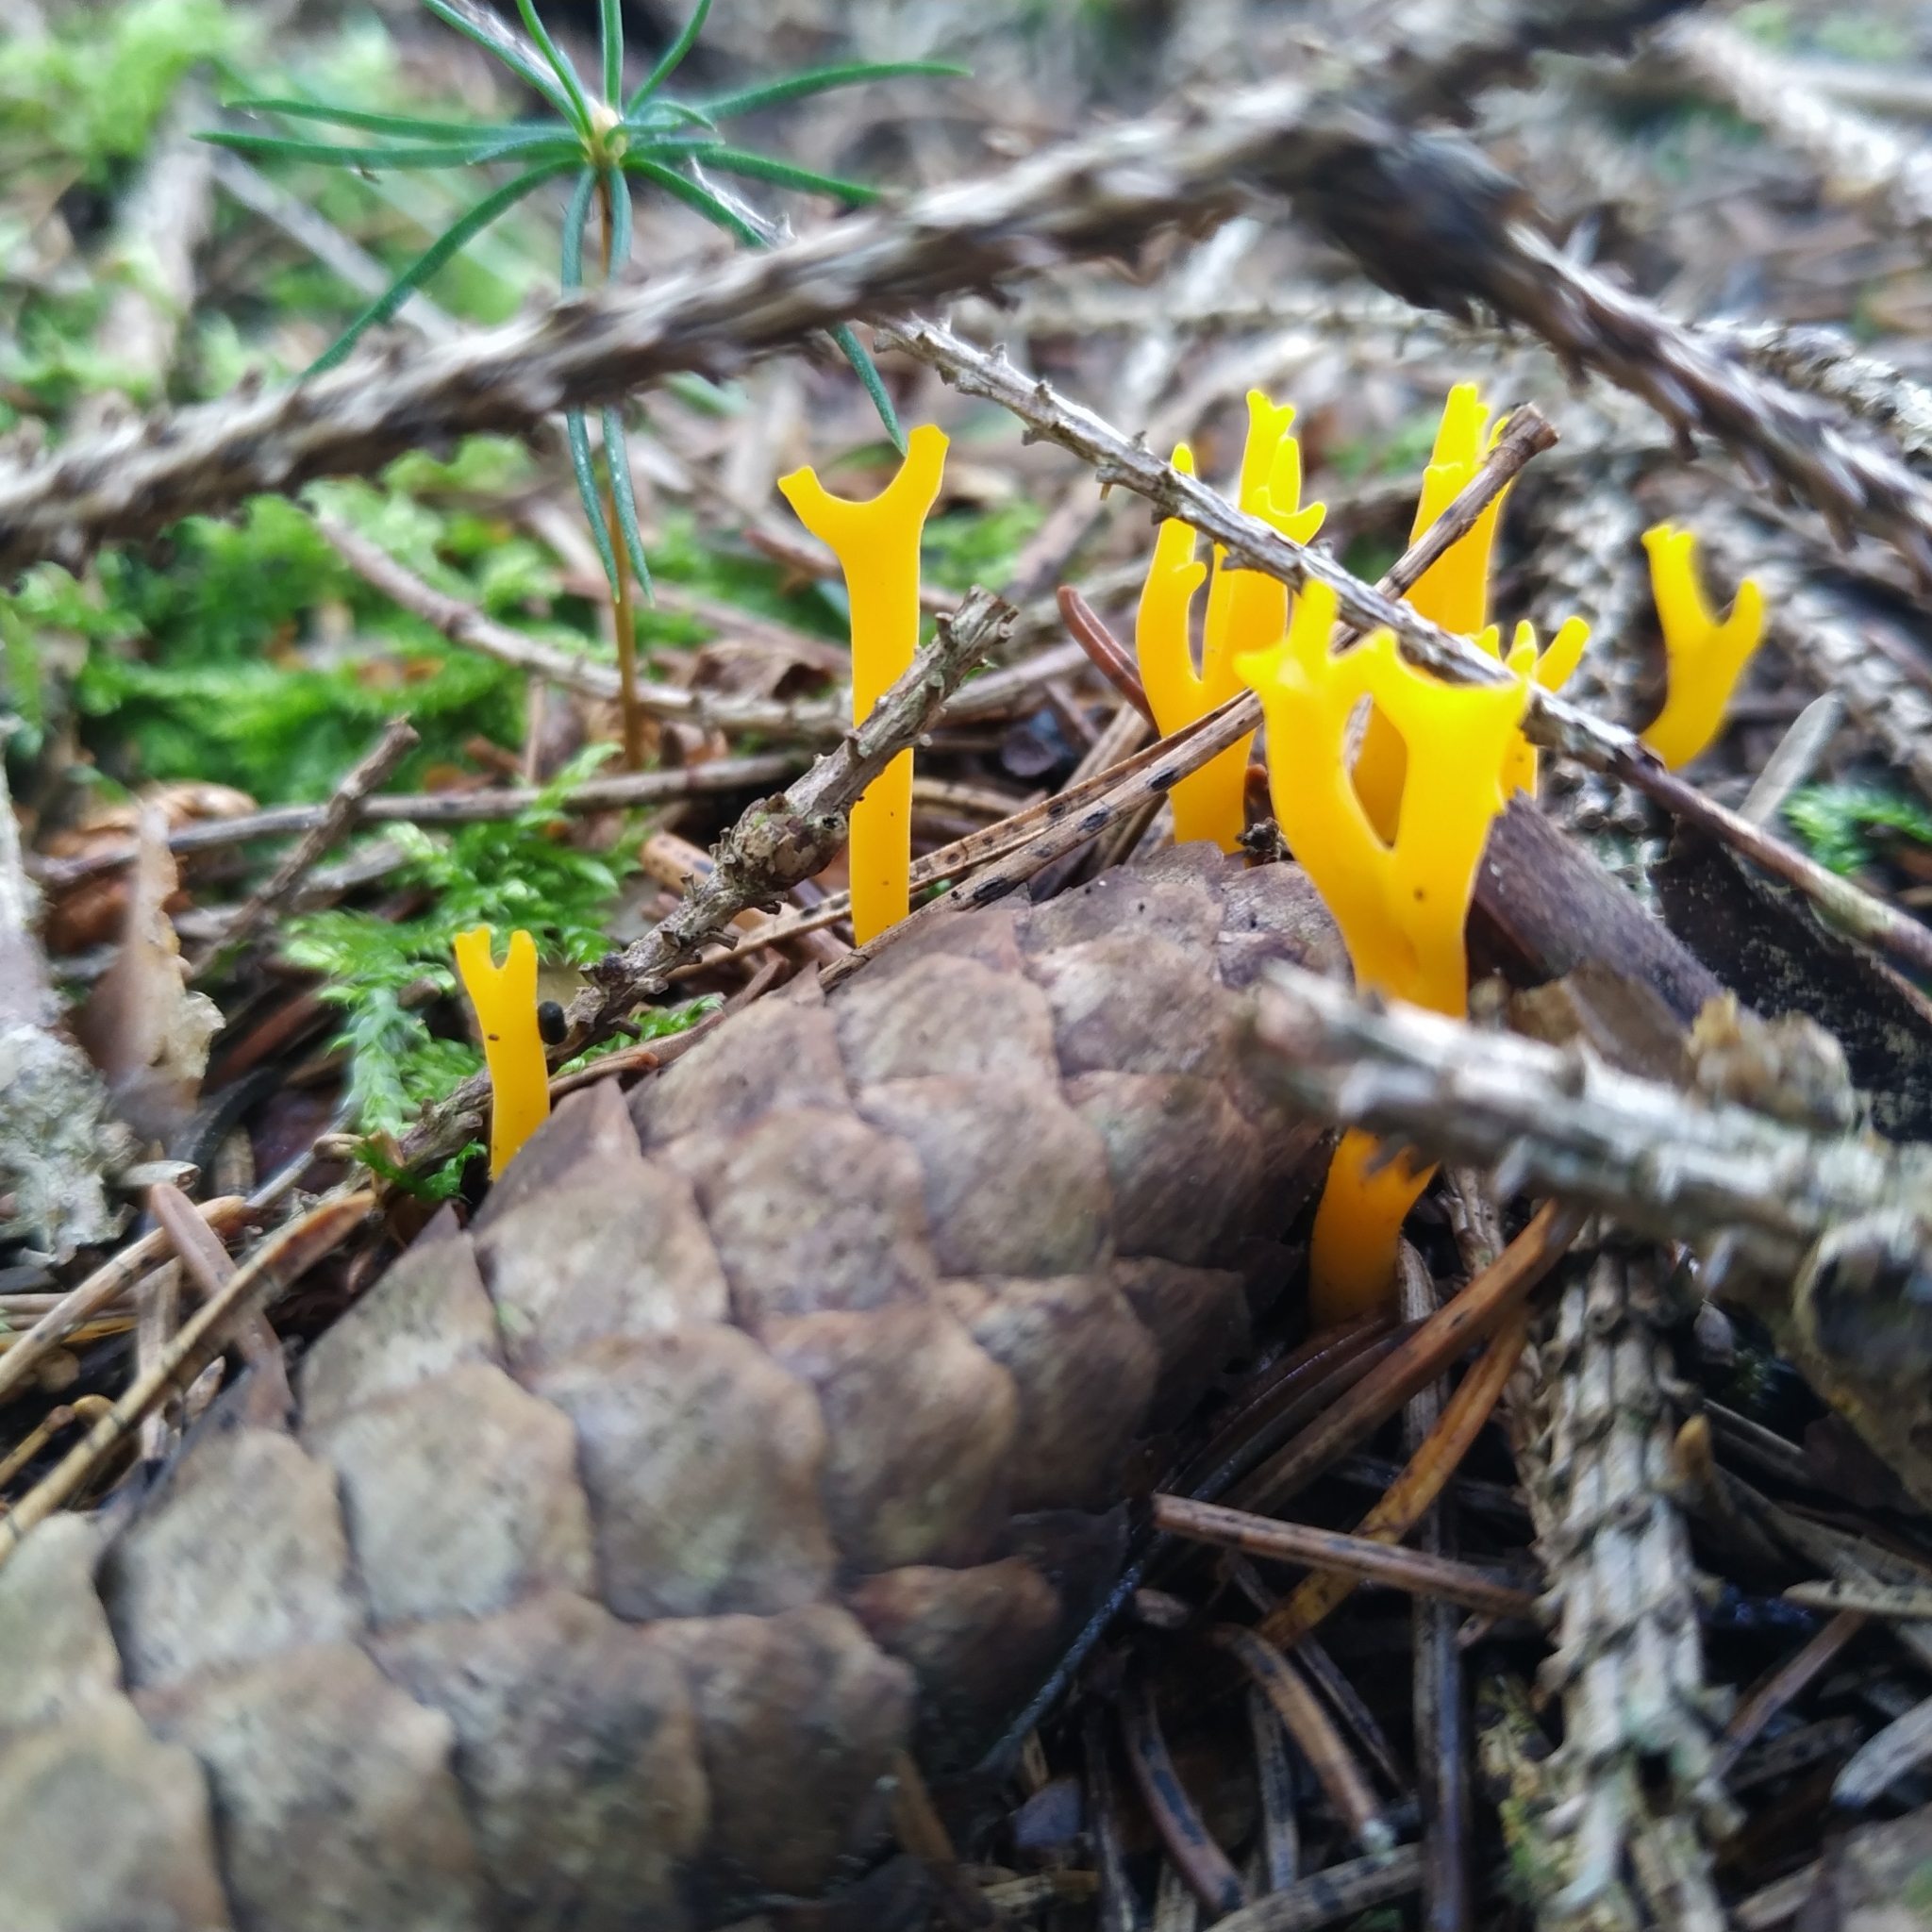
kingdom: Fungi
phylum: Basidiomycota
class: Dacrymycetes
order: Dacrymycetales
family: Dacrymycetaceae
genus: Calocera
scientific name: Calocera viscosa
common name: Yellow stagshorn
